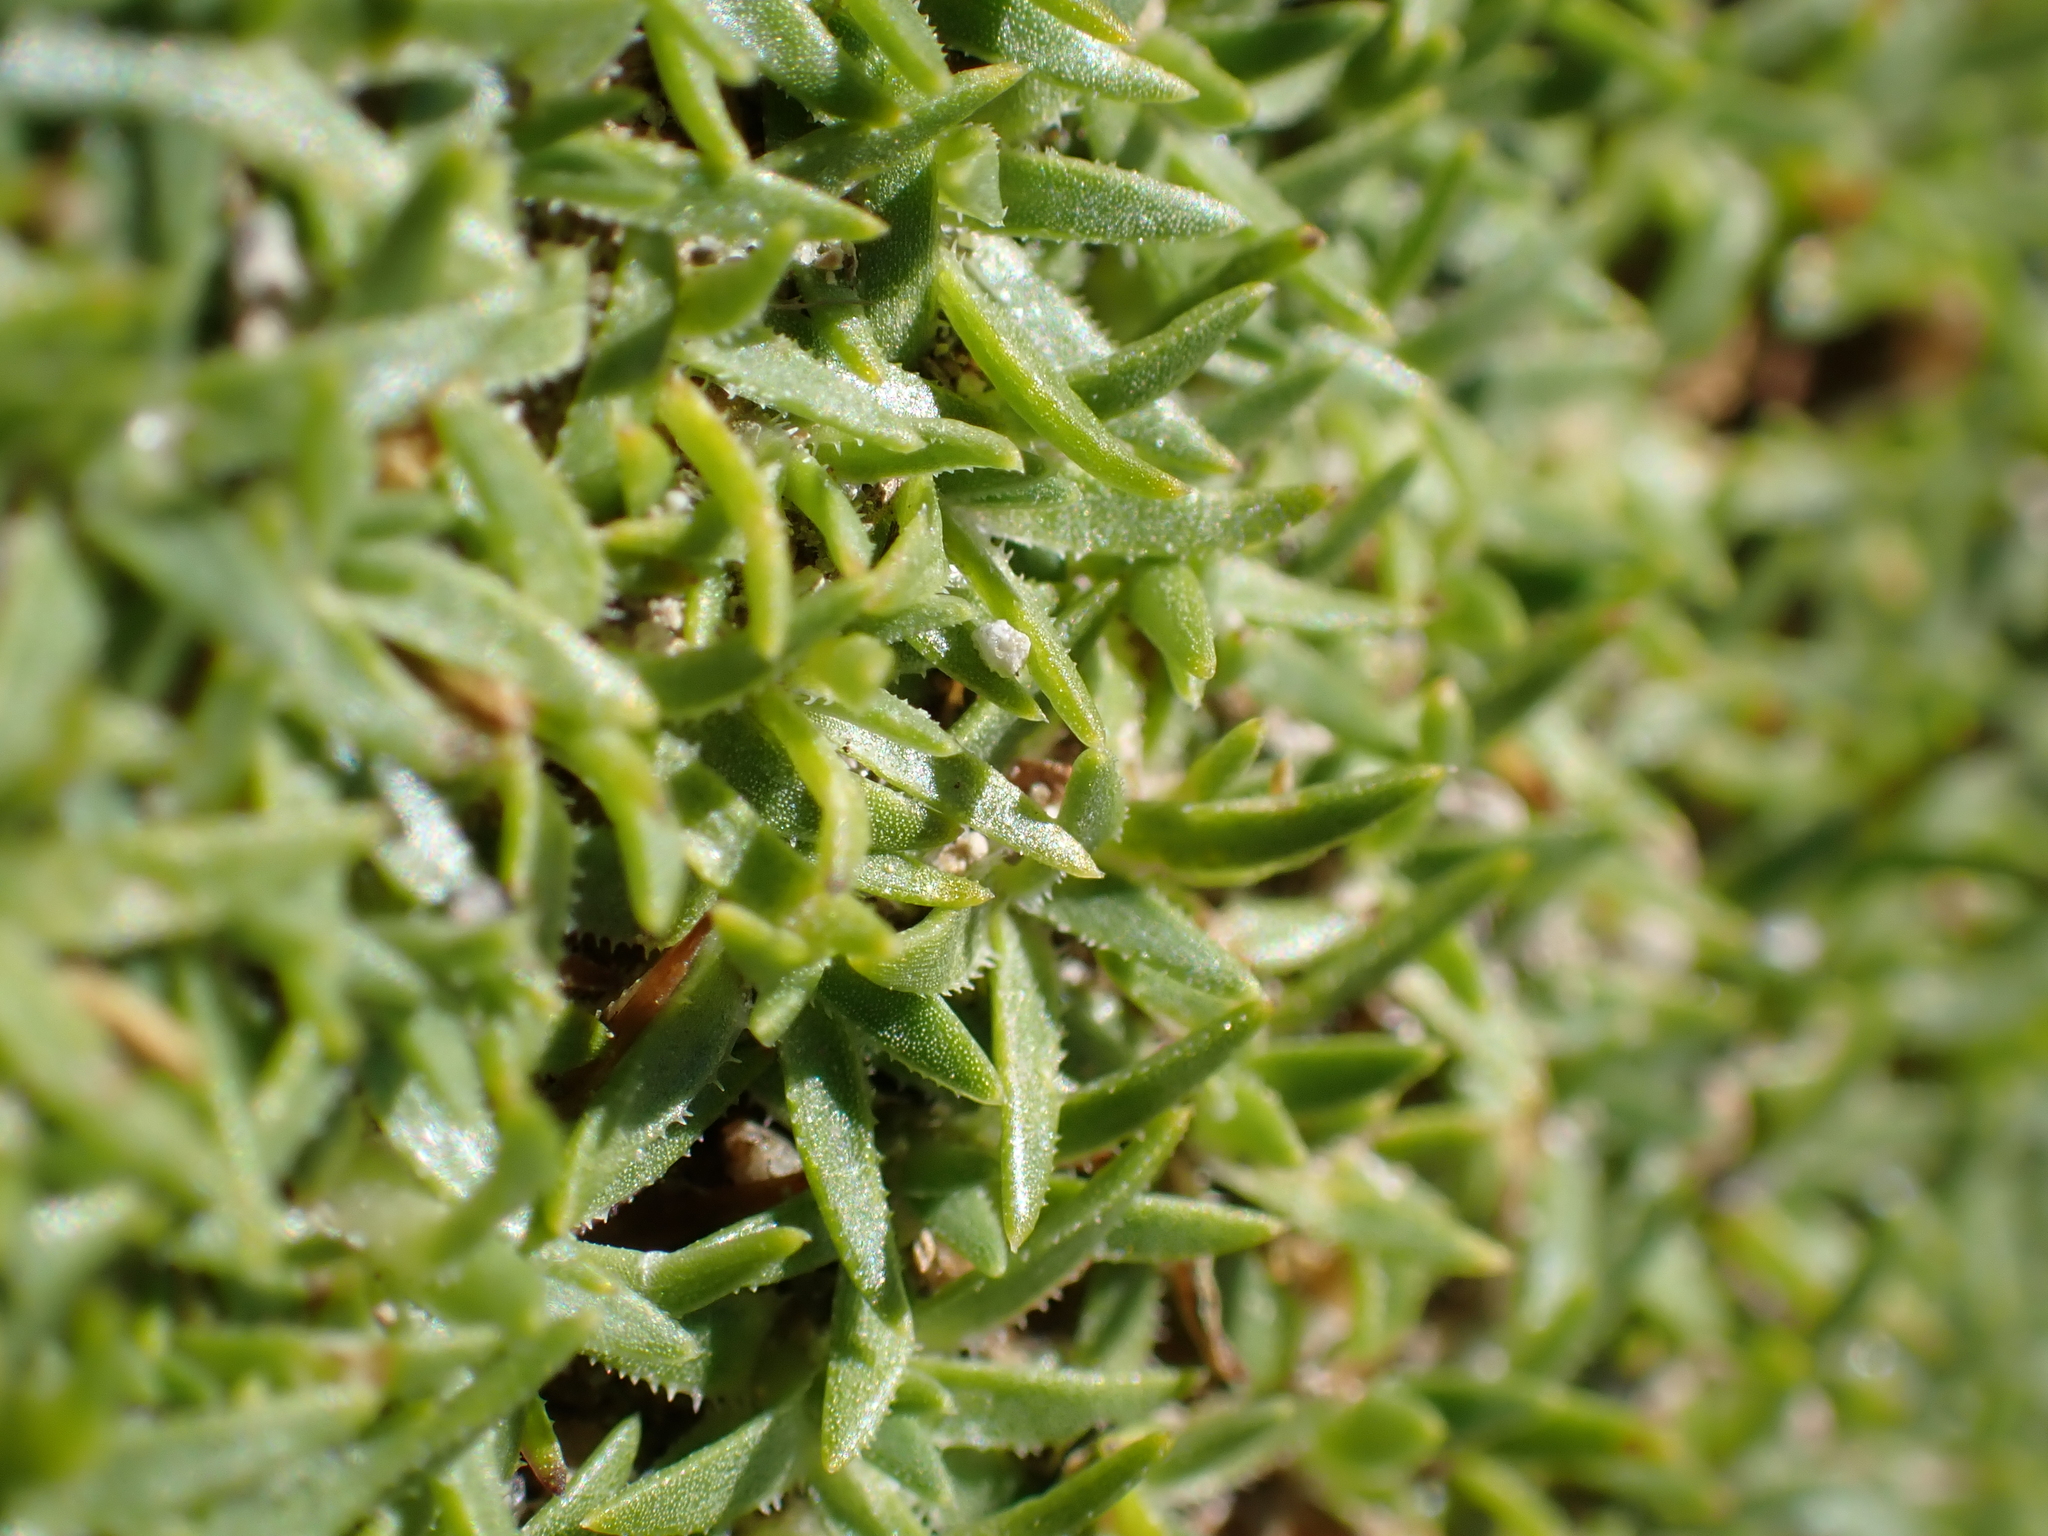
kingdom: Plantae
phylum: Tracheophyta
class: Magnoliopsida
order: Caryophyllales
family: Caryophyllaceae
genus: Silene
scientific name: Silene acaulis
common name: Moss campion
